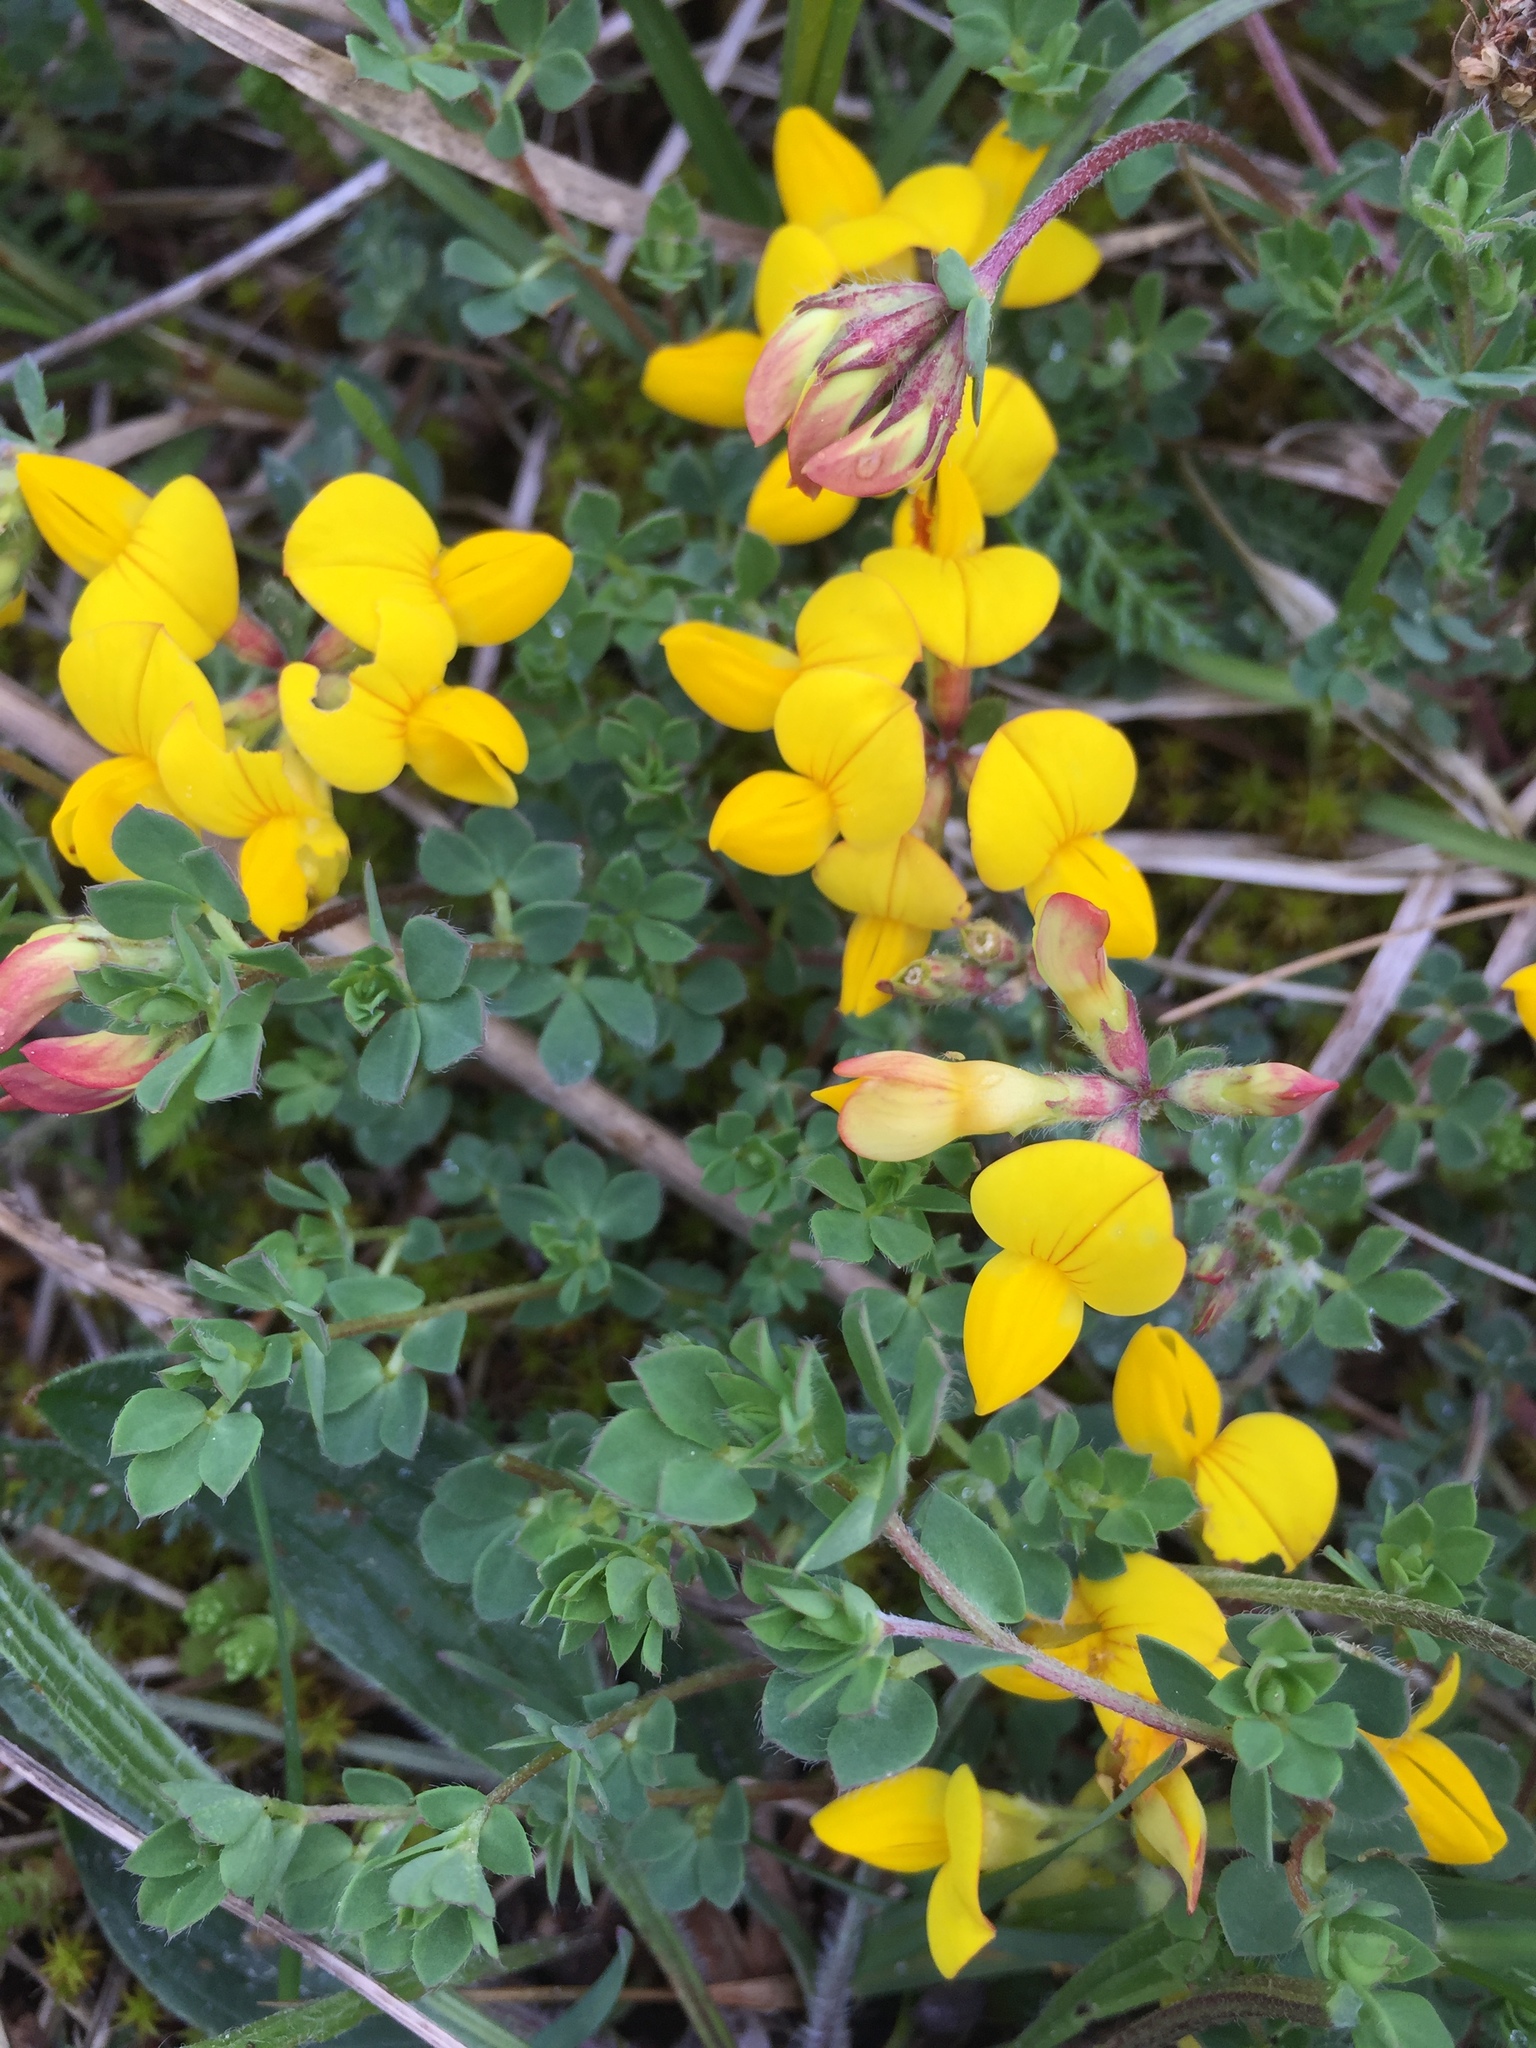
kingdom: Plantae
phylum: Tracheophyta
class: Magnoliopsida
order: Fabales
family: Fabaceae
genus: Lotus
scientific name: Lotus corniculatus
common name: Common bird's-foot-trefoil
